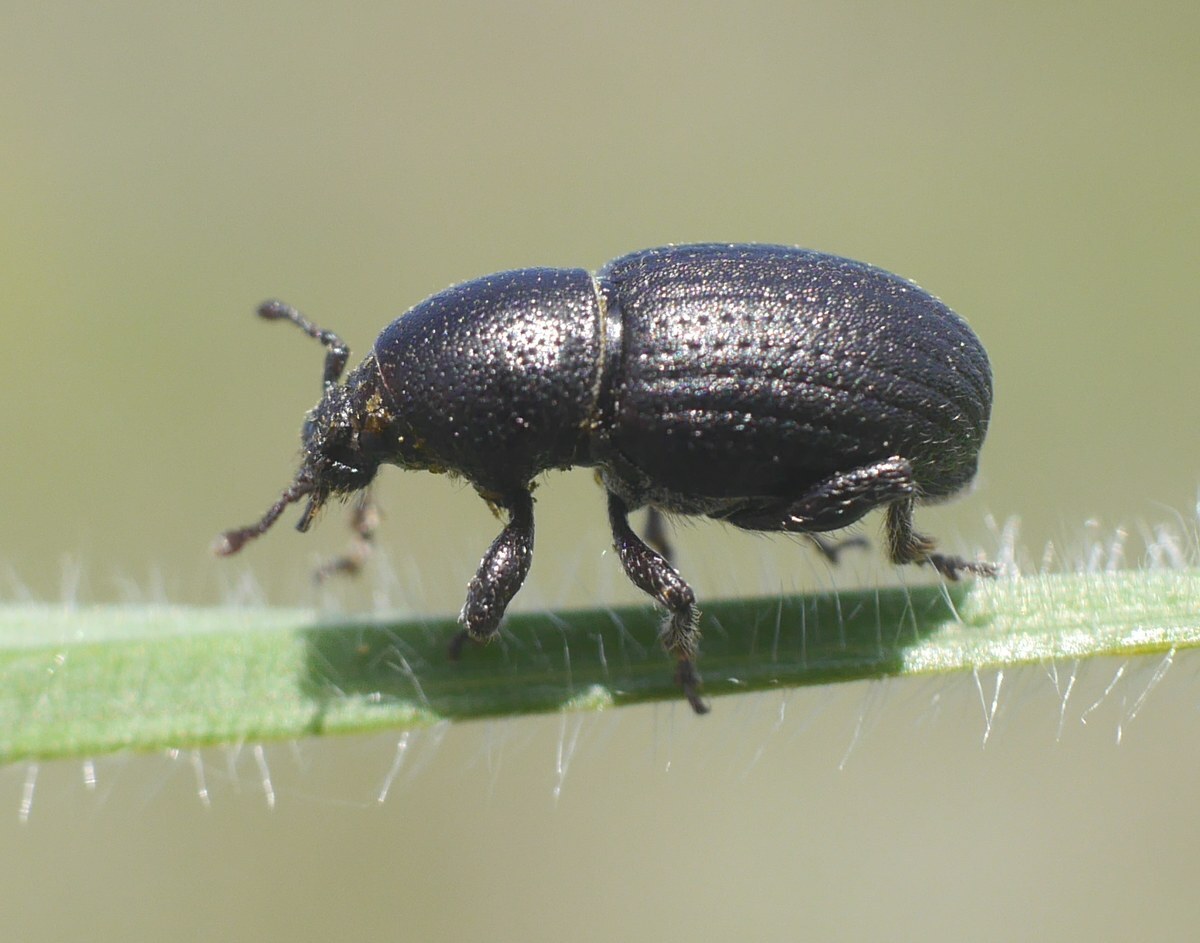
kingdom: Animalia
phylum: Arthropoda
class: Insecta
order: Coleoptera
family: Curculionidae
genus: Psallidium
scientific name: Psallidium maxillosum
